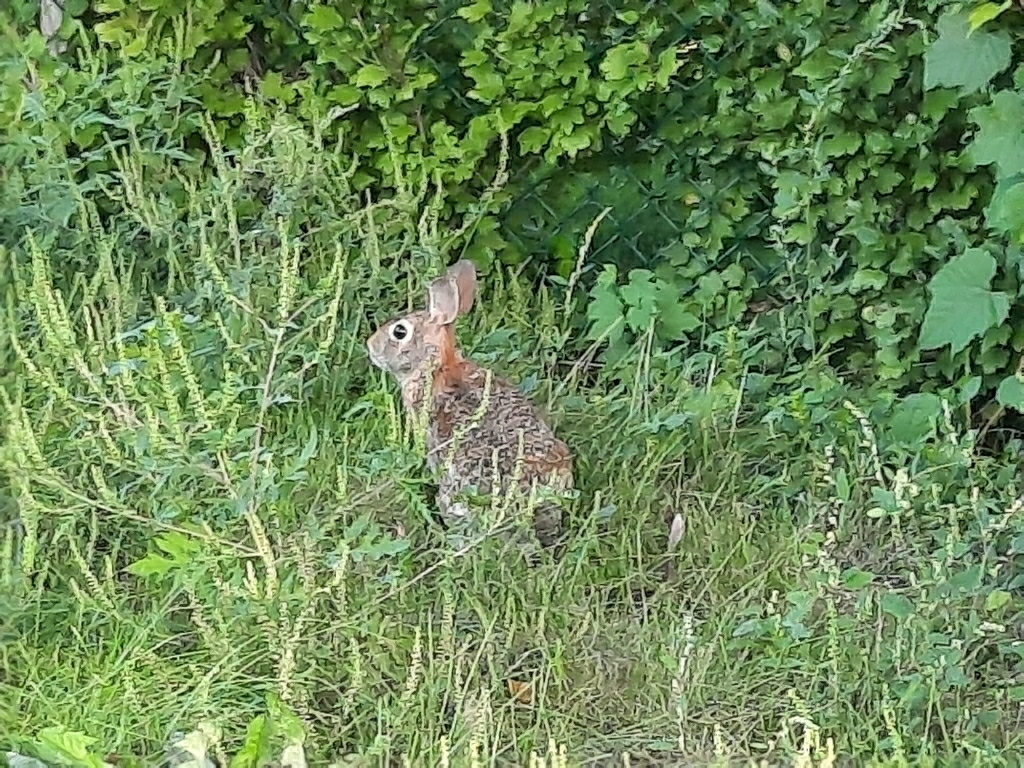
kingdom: Animalia
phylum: Chordata
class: Mammalia
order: Lagomorpha
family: Leporidae
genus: Sylvilagus
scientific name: Sylvilagus floridanus
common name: Eastern cottontail
